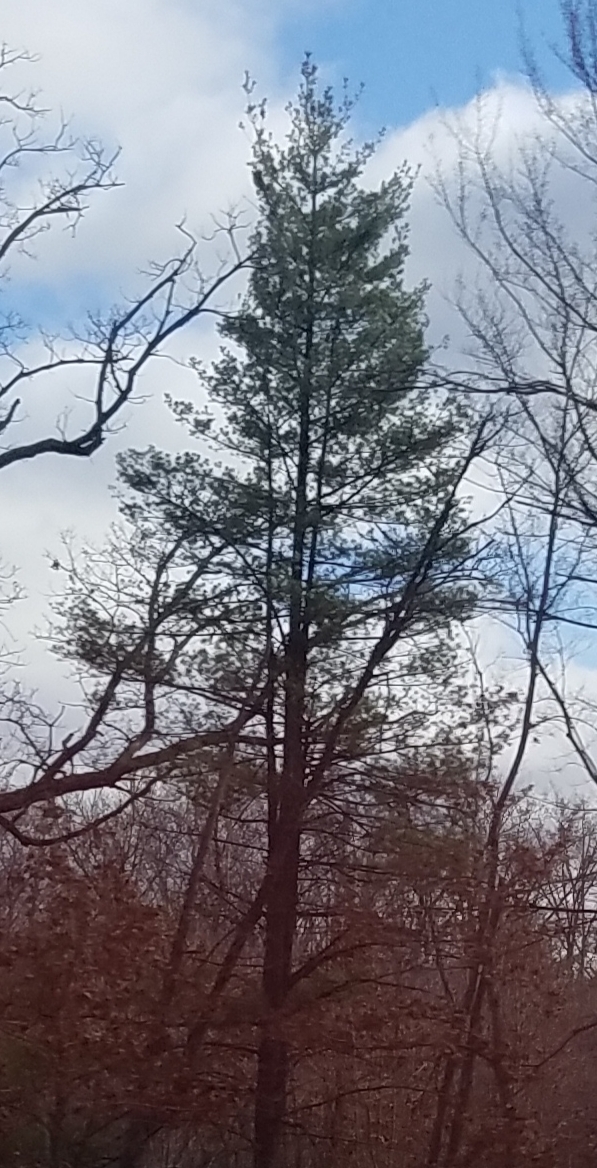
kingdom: Plantae
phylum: Tracheophyta
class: Pinopsida
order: Pinales
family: Pinaceae
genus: Pinus
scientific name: Pinus strobus
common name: Weymouth pine
